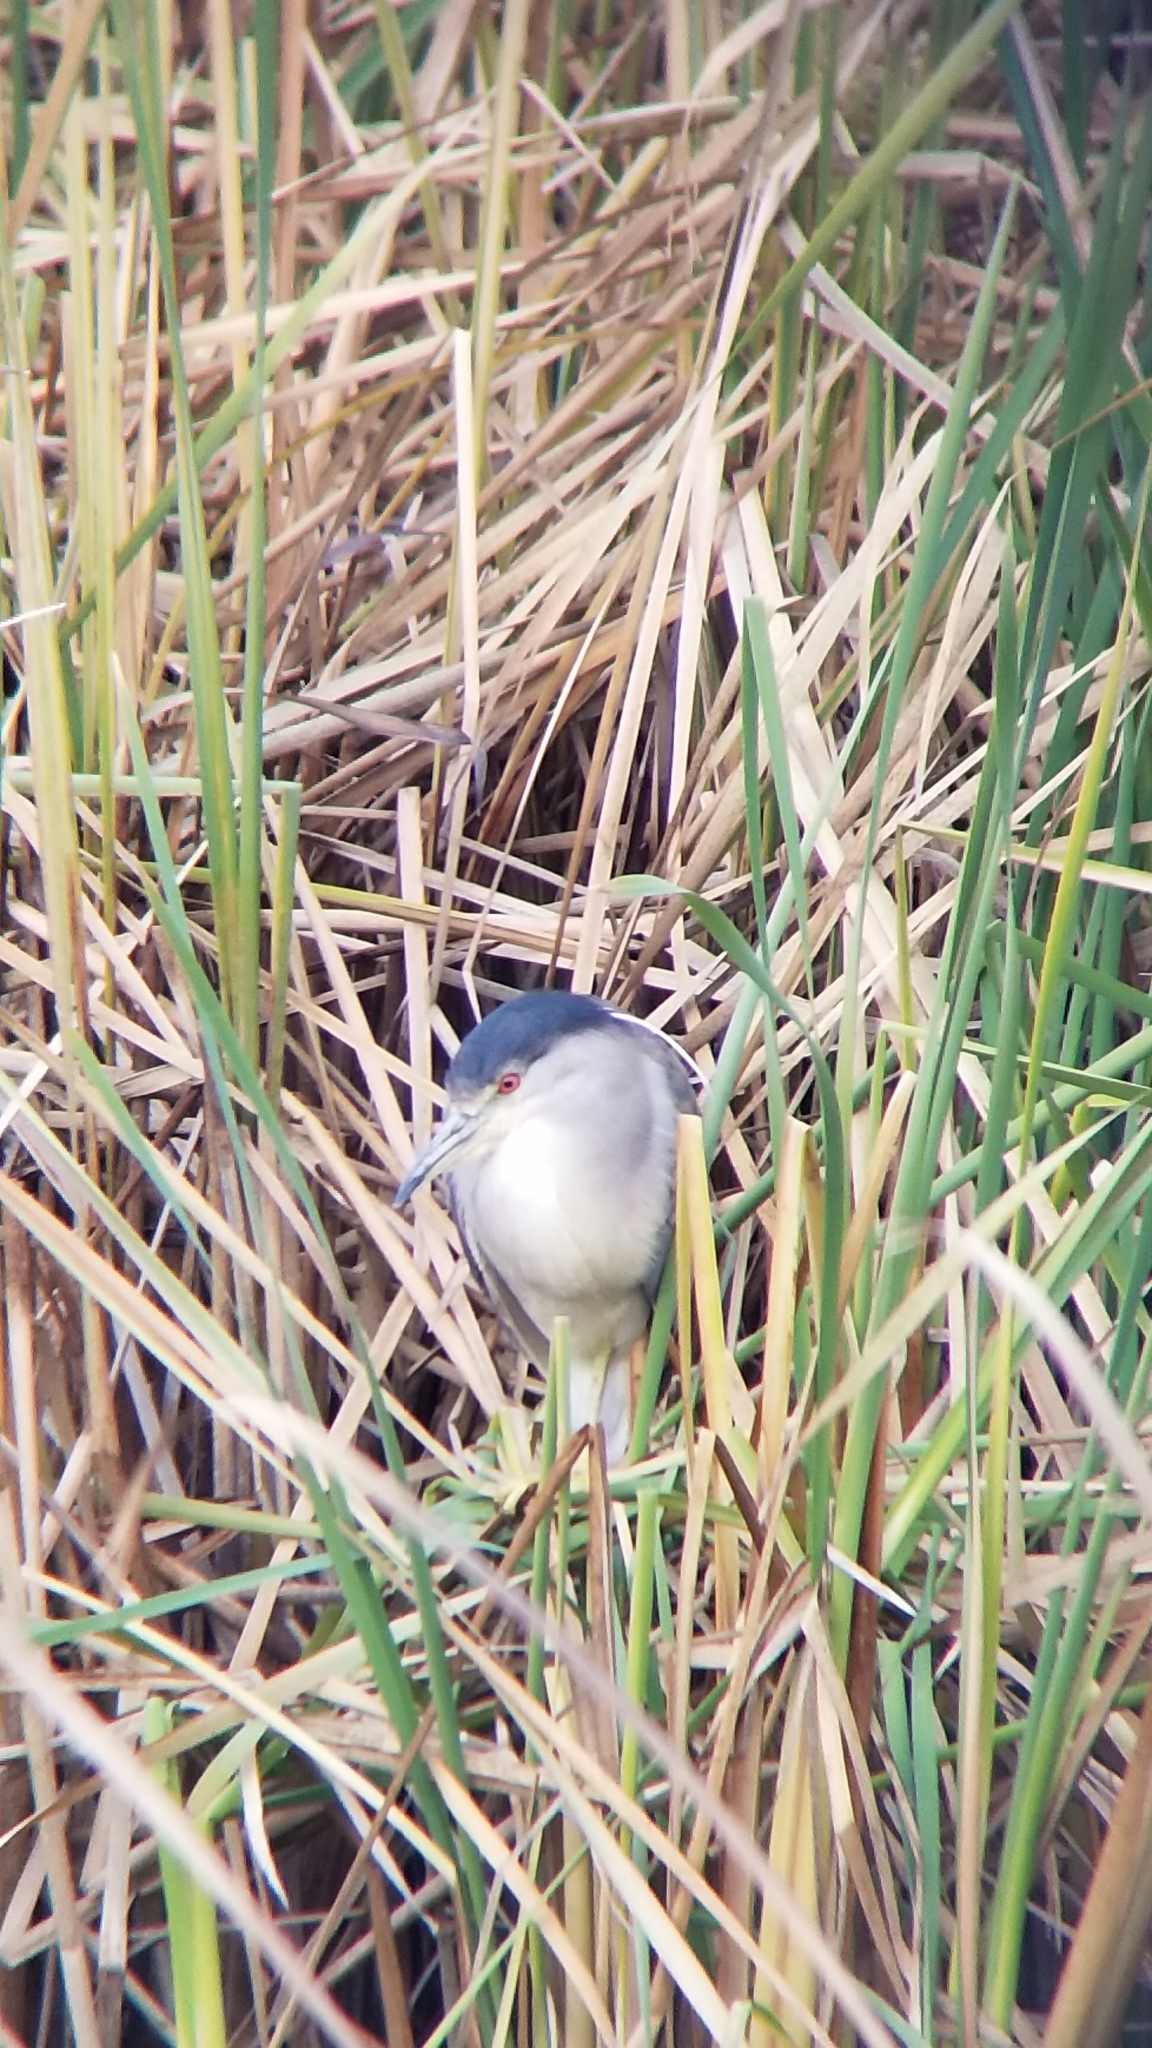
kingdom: Animalia
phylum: Chordata
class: Aves
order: Pelecaniformes
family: Ardeidae
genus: Nycticorax
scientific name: Nycticorax nycticorax
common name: Black-crowned night heron
